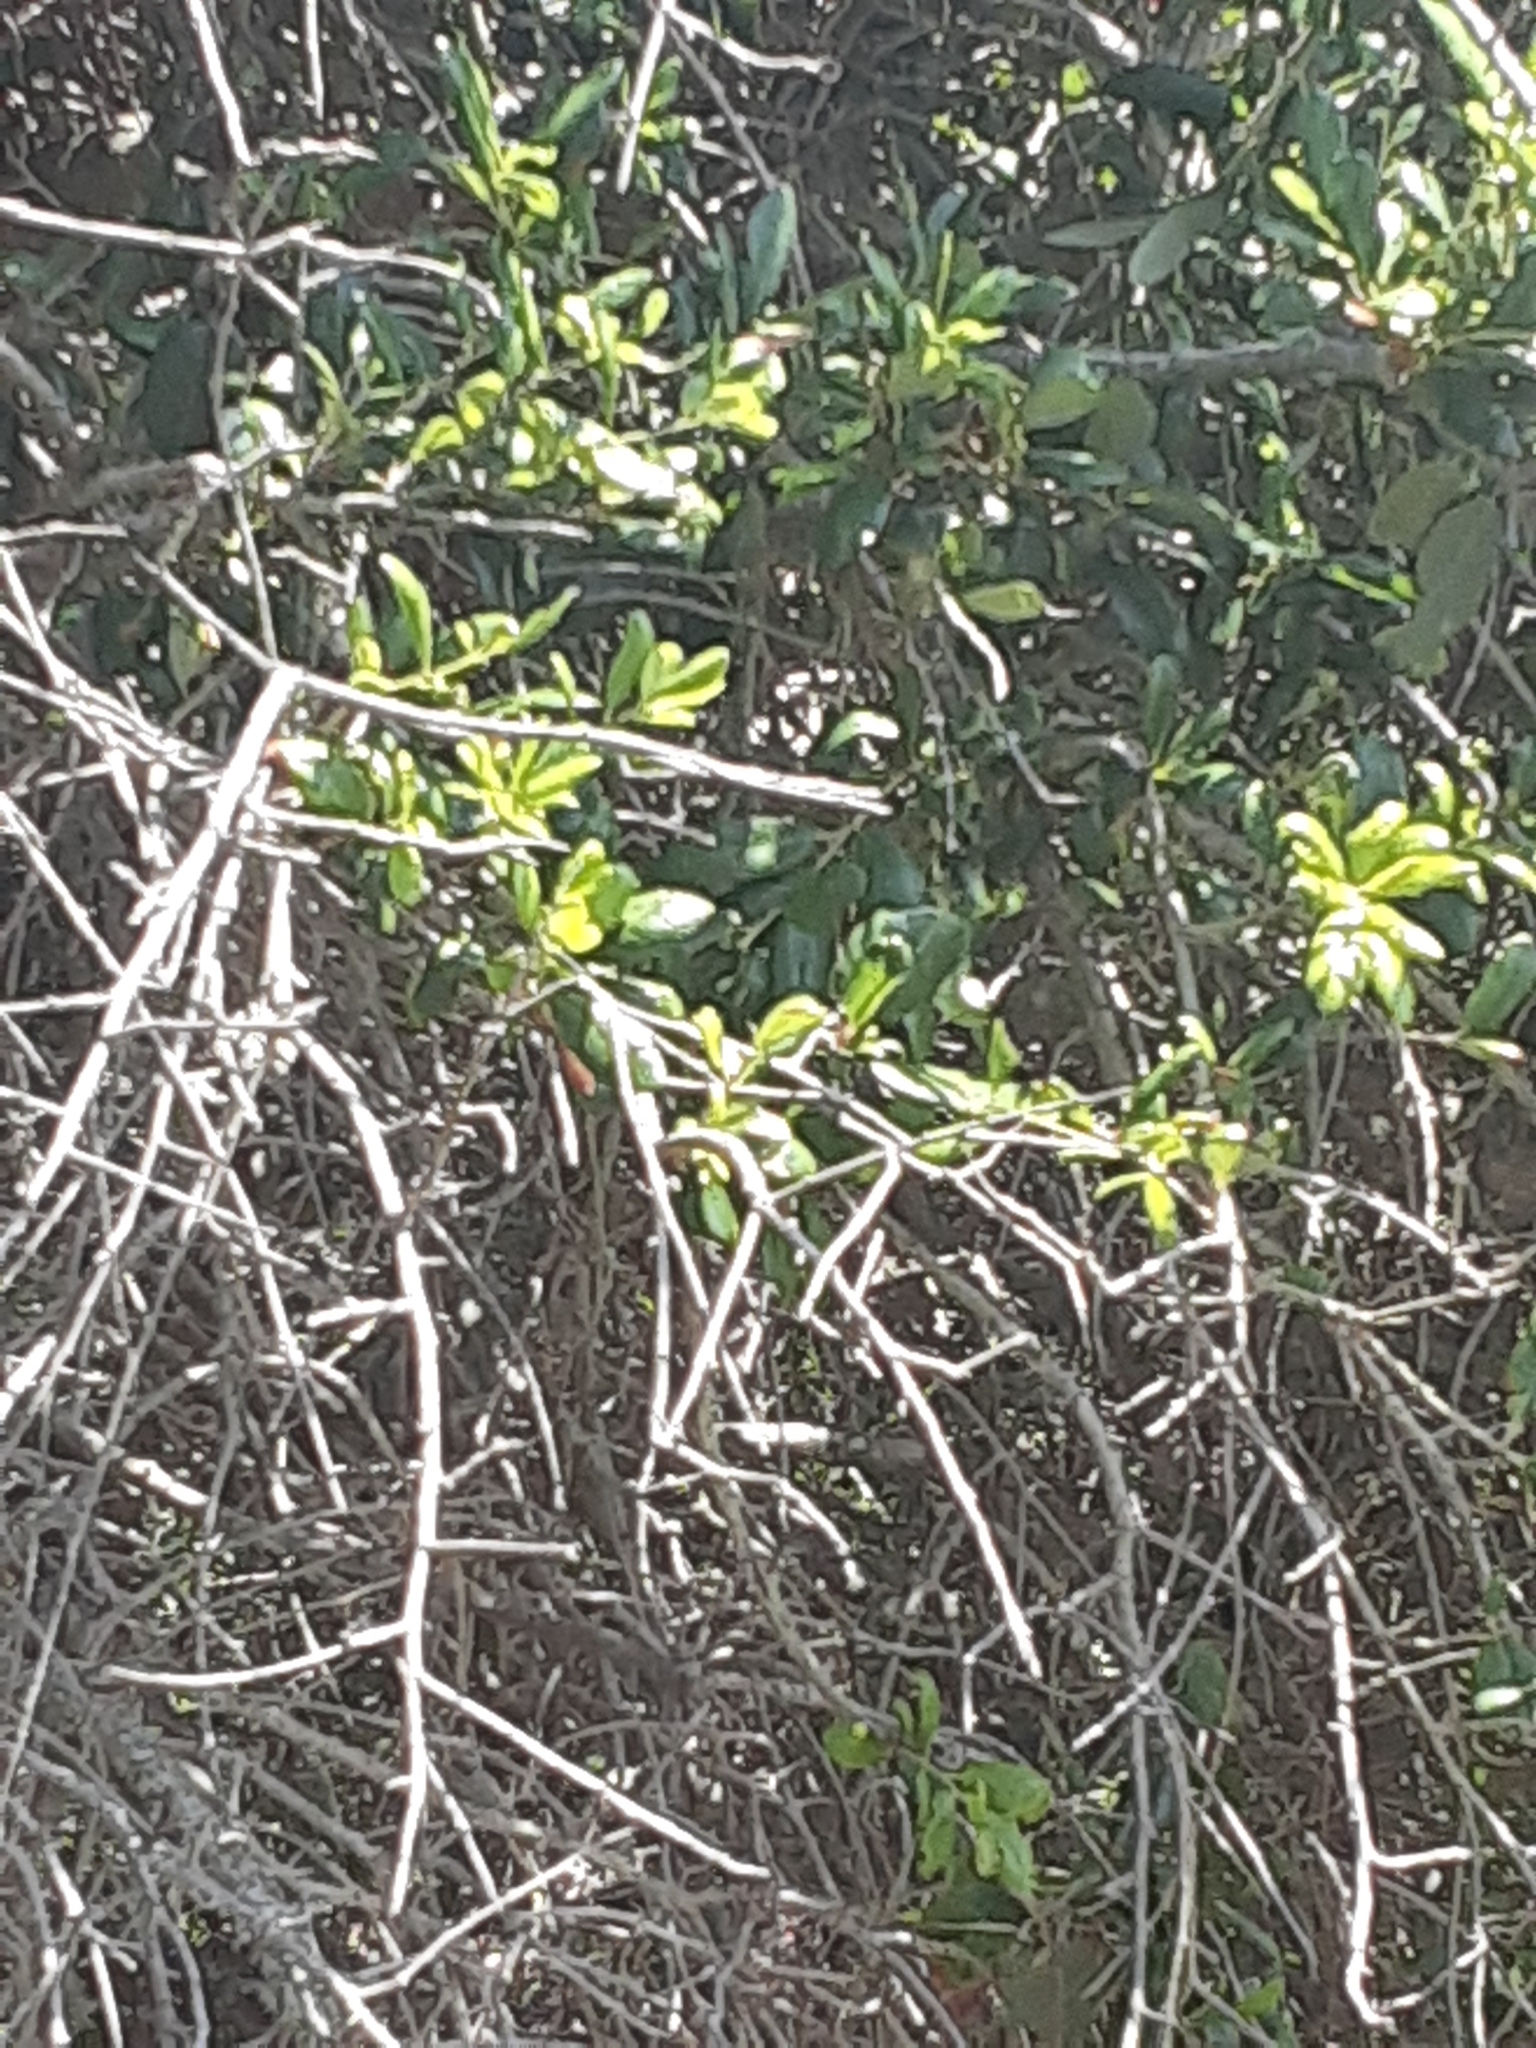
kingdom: Plantae
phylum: Tracheophyta
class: Magnoliopsida
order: Fagales
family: Fagaceae
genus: Quercus
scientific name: Quercus virginiana
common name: Southern live oak
